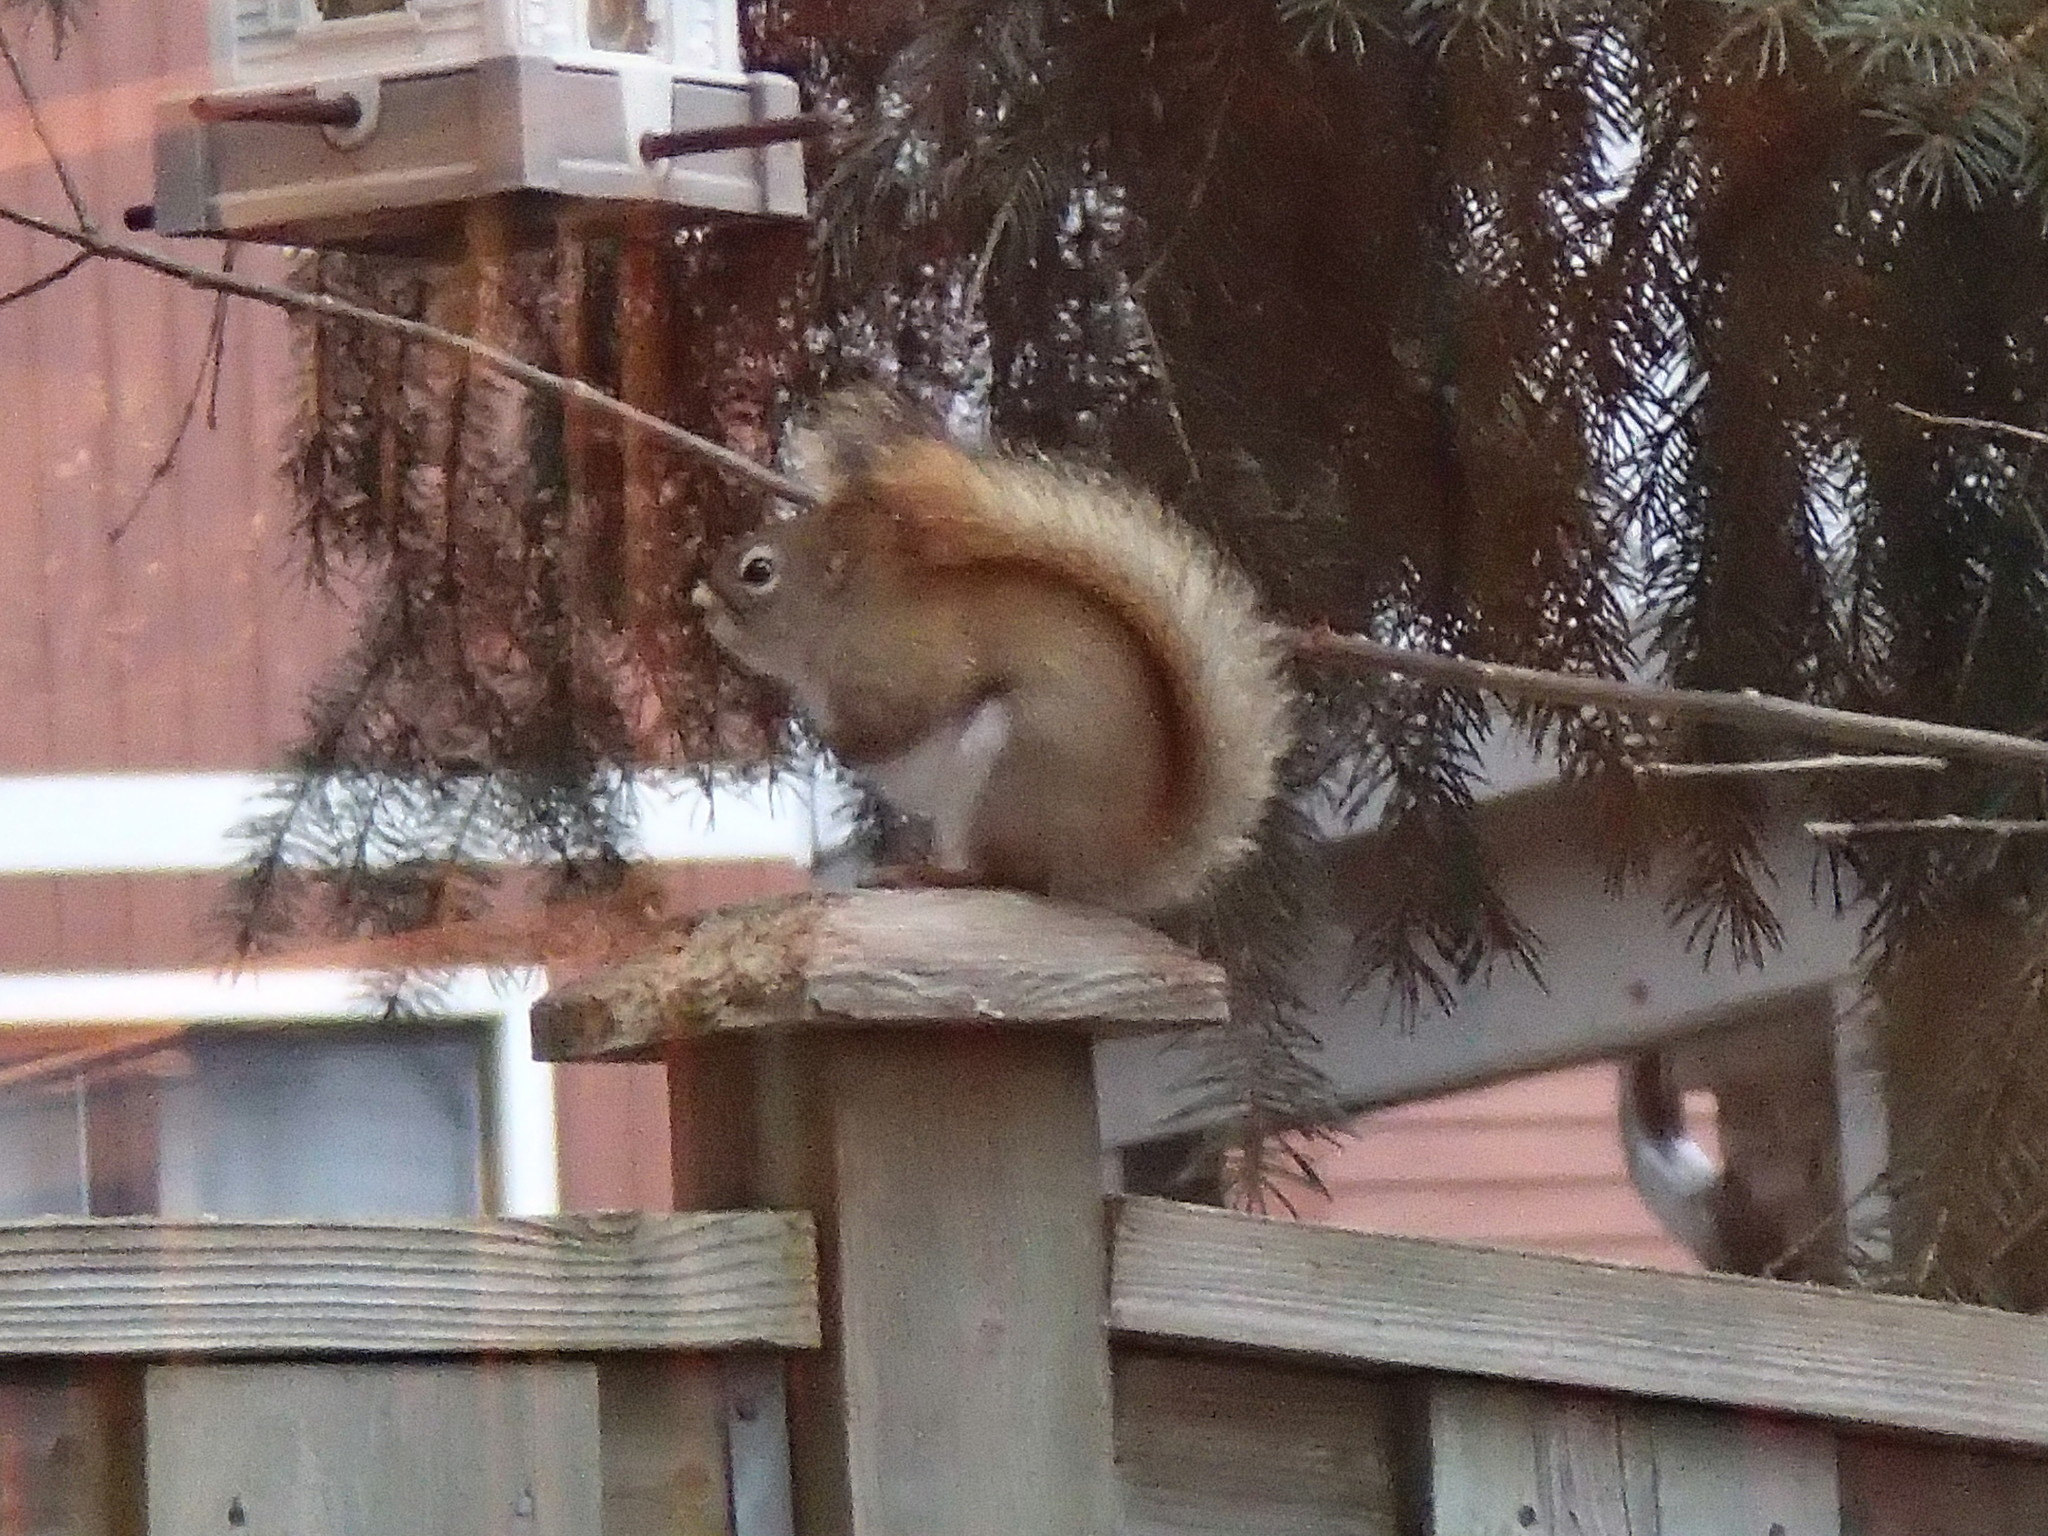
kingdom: Animalia
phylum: Chordata
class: Mammalia
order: Rodentia
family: Sciuridae
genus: Tamiasciurus
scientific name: Tamiasciurus hudsonicus
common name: Red squirrel
